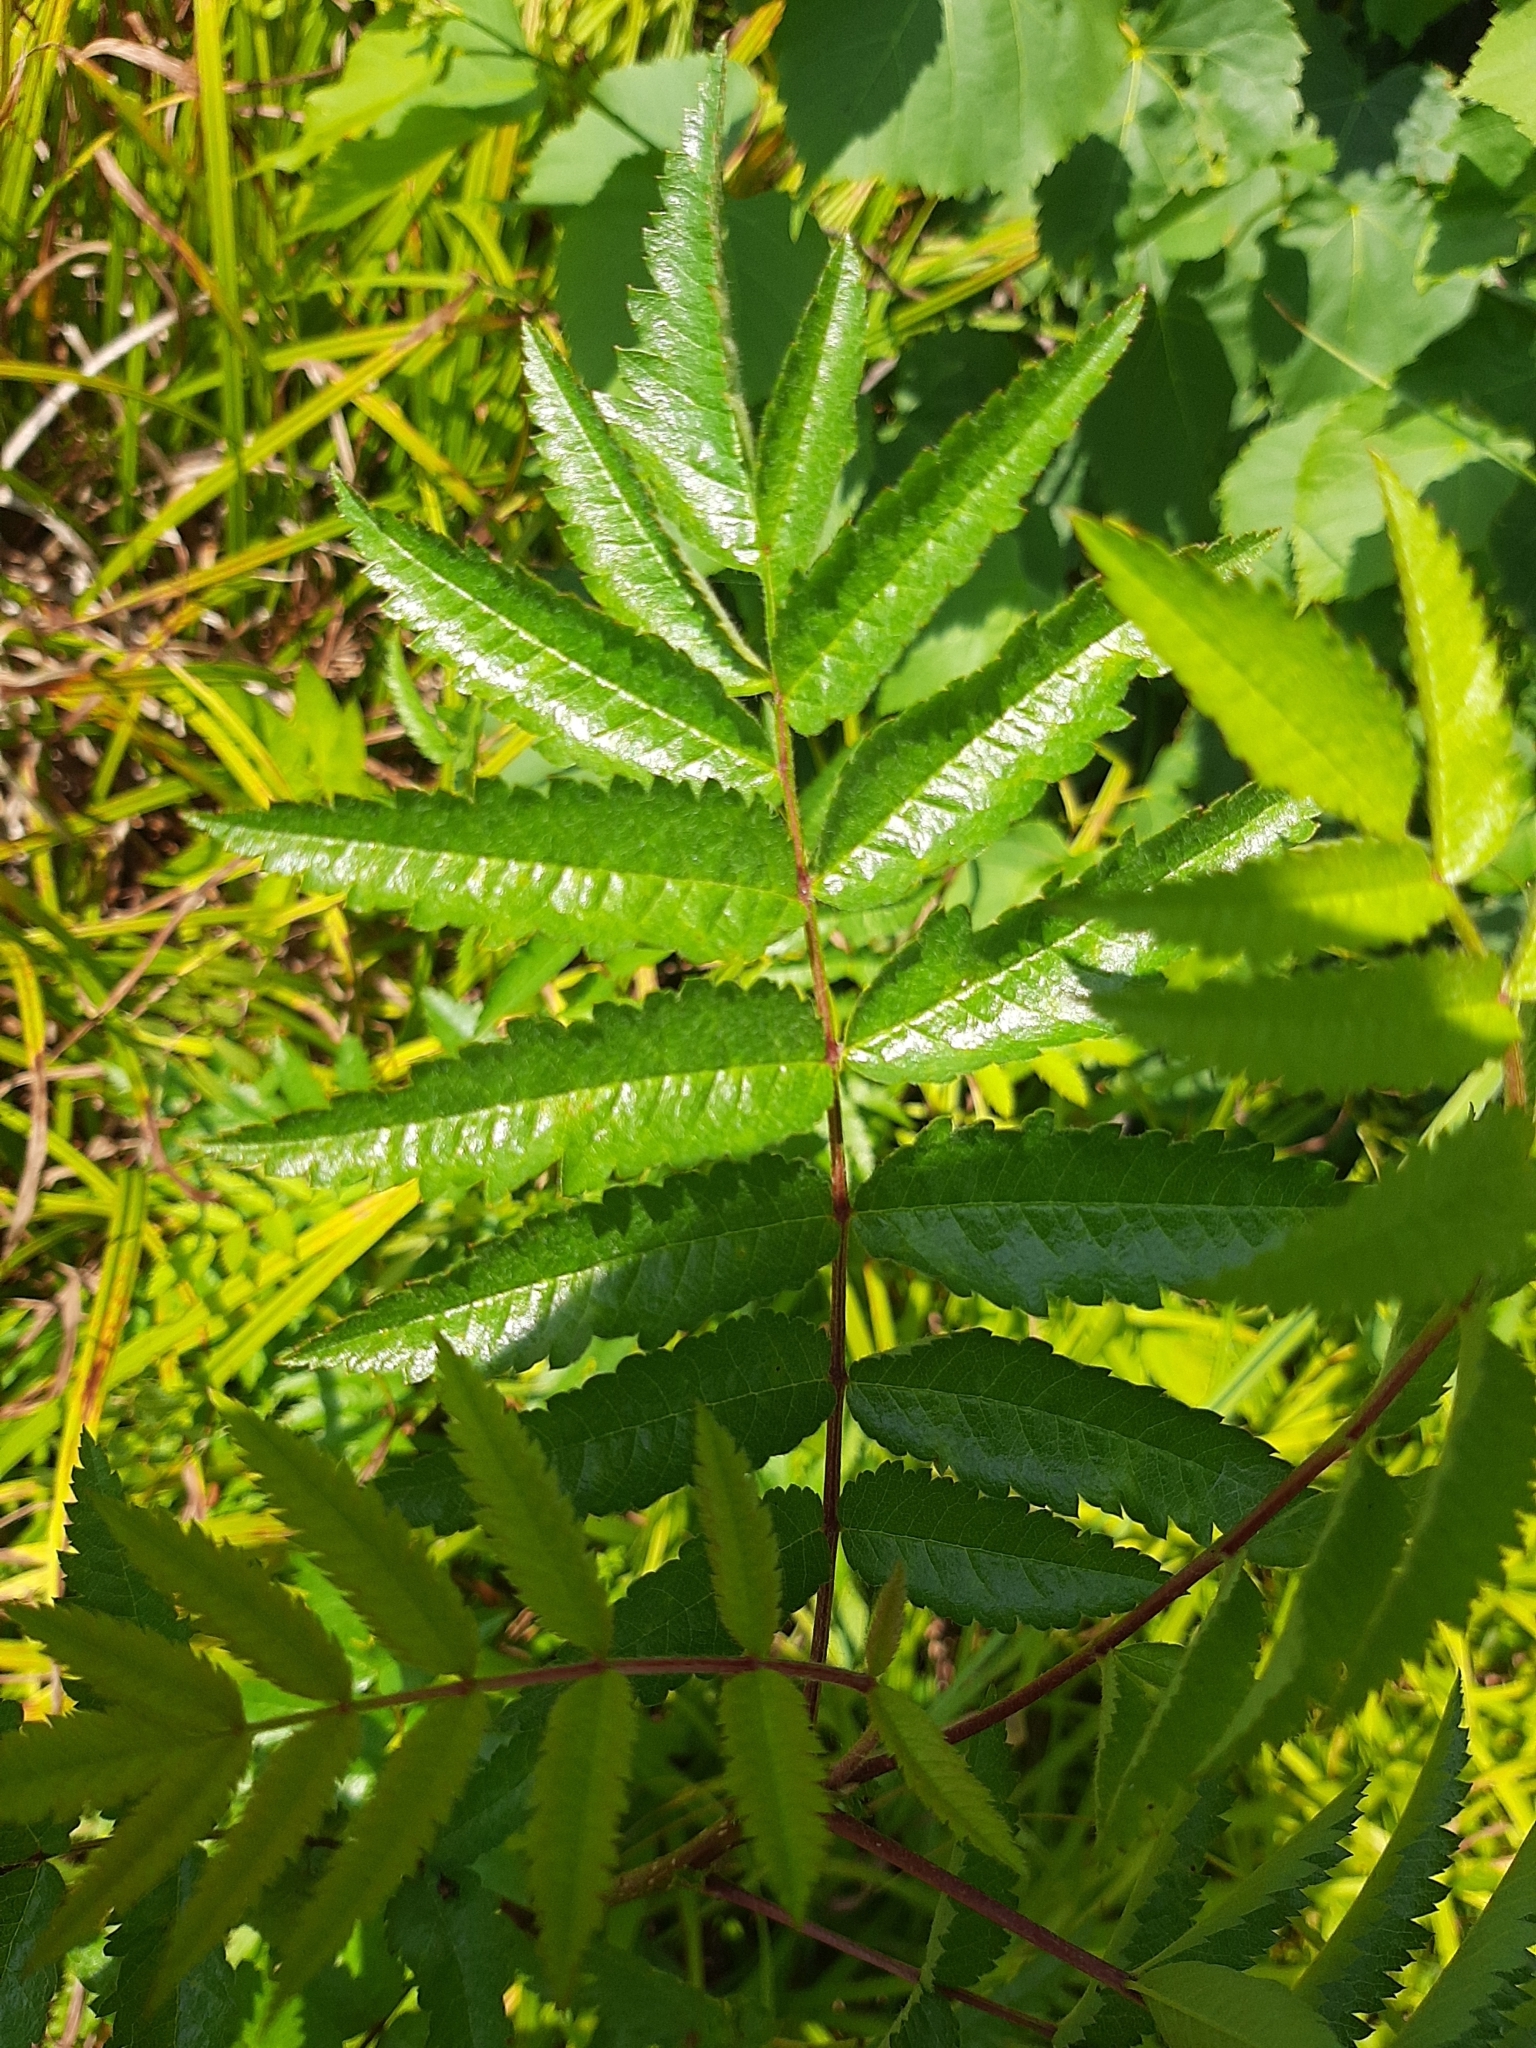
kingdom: Plantae
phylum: Tracheophyta
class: Magnoliopsida
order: Rosales
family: Rosaceae
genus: Sorbus
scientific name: Sorbus aucuparia
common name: Rowan
